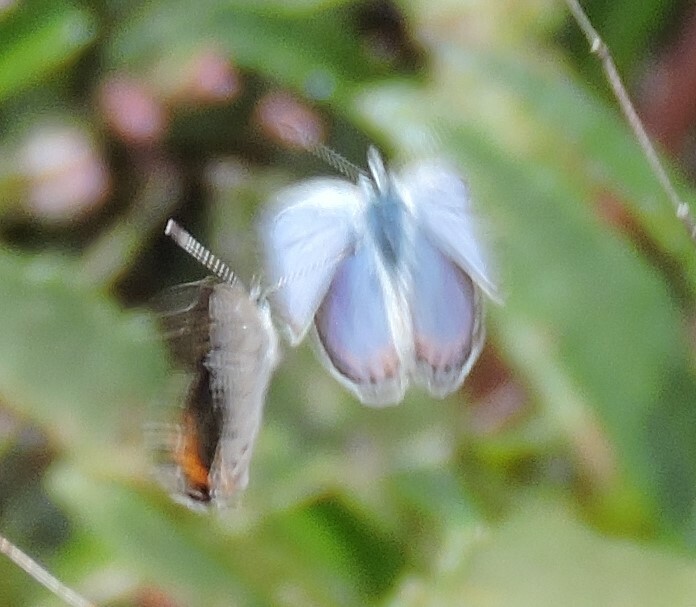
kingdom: Animalia
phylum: Arthropoda
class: Insecta
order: Lepidoptera
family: Lycaenidae
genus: Icaricia
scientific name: Icaricia acmon
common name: Acmon blue
